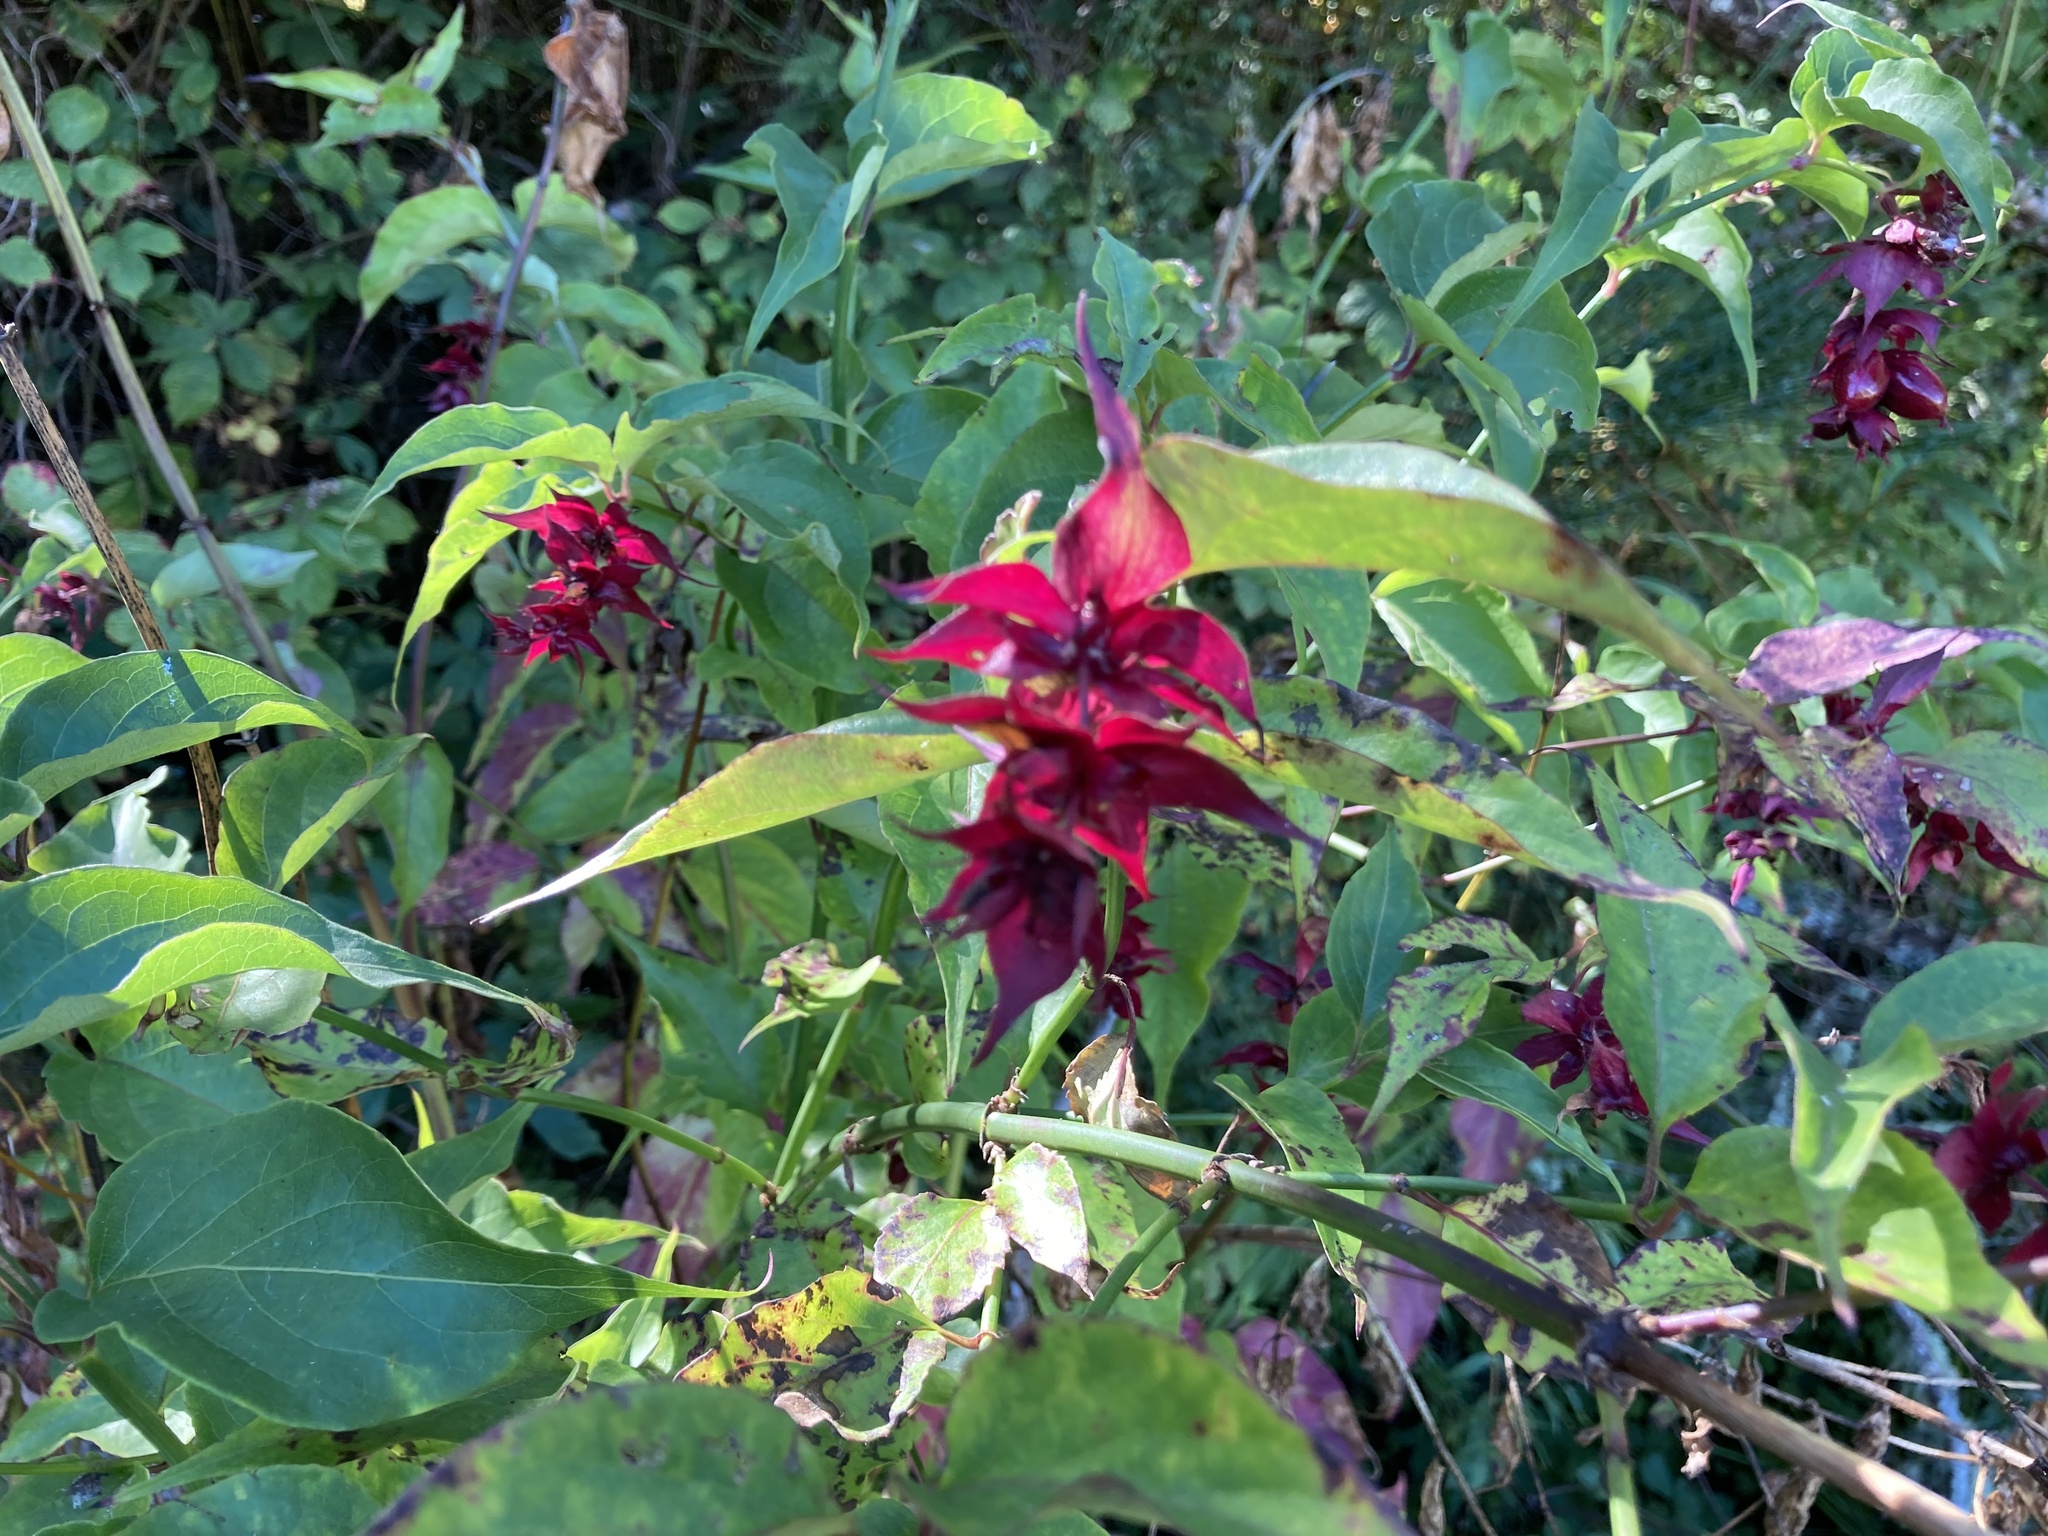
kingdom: Plantae
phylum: Tracheophyta
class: Magnoliopsida
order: Dipsacales
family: Caprifoliaceae
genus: Leycesteria
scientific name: Leycesteria formosa
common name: Himalayan honeysuckle
